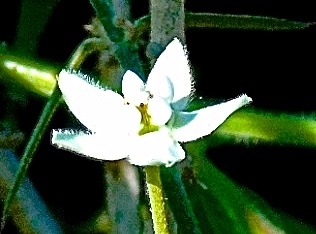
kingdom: Plantae
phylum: Tracheophyta
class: Magnoliopsida
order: Gentianales
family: Apocynaceae
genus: Funastrum
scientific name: Funastrum clausum
